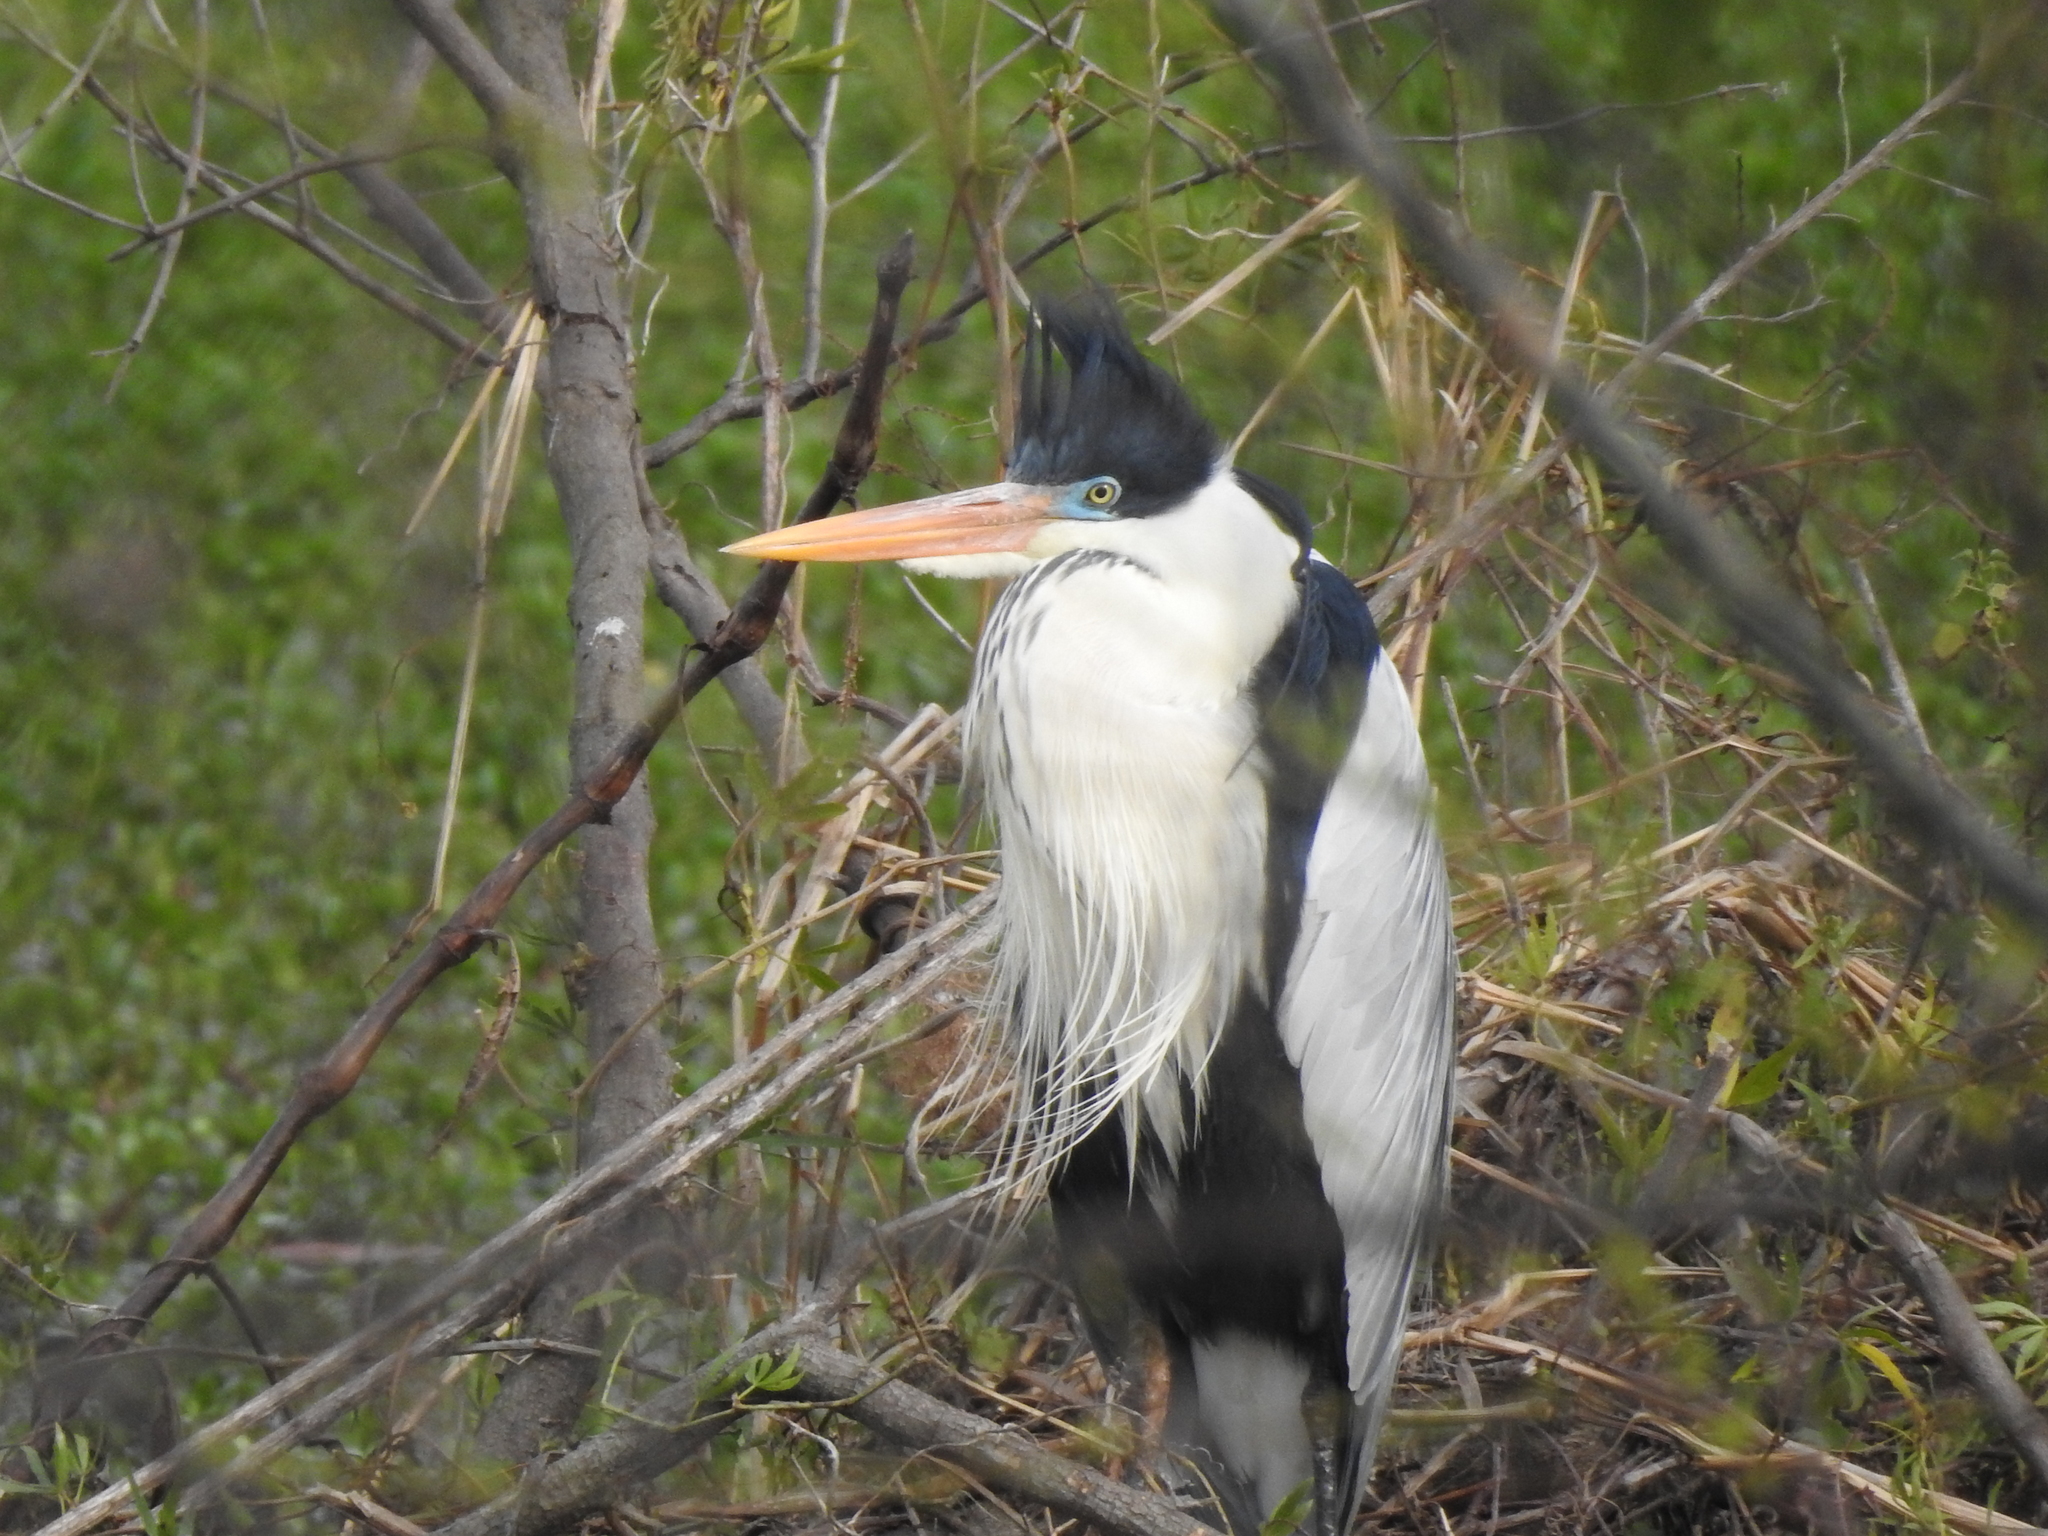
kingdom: Animalia
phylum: Chordata
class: Aves
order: Pelecaniformes
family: Ardeidae
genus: Ardea
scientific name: Ardea cocoi
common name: Cocoi heron
